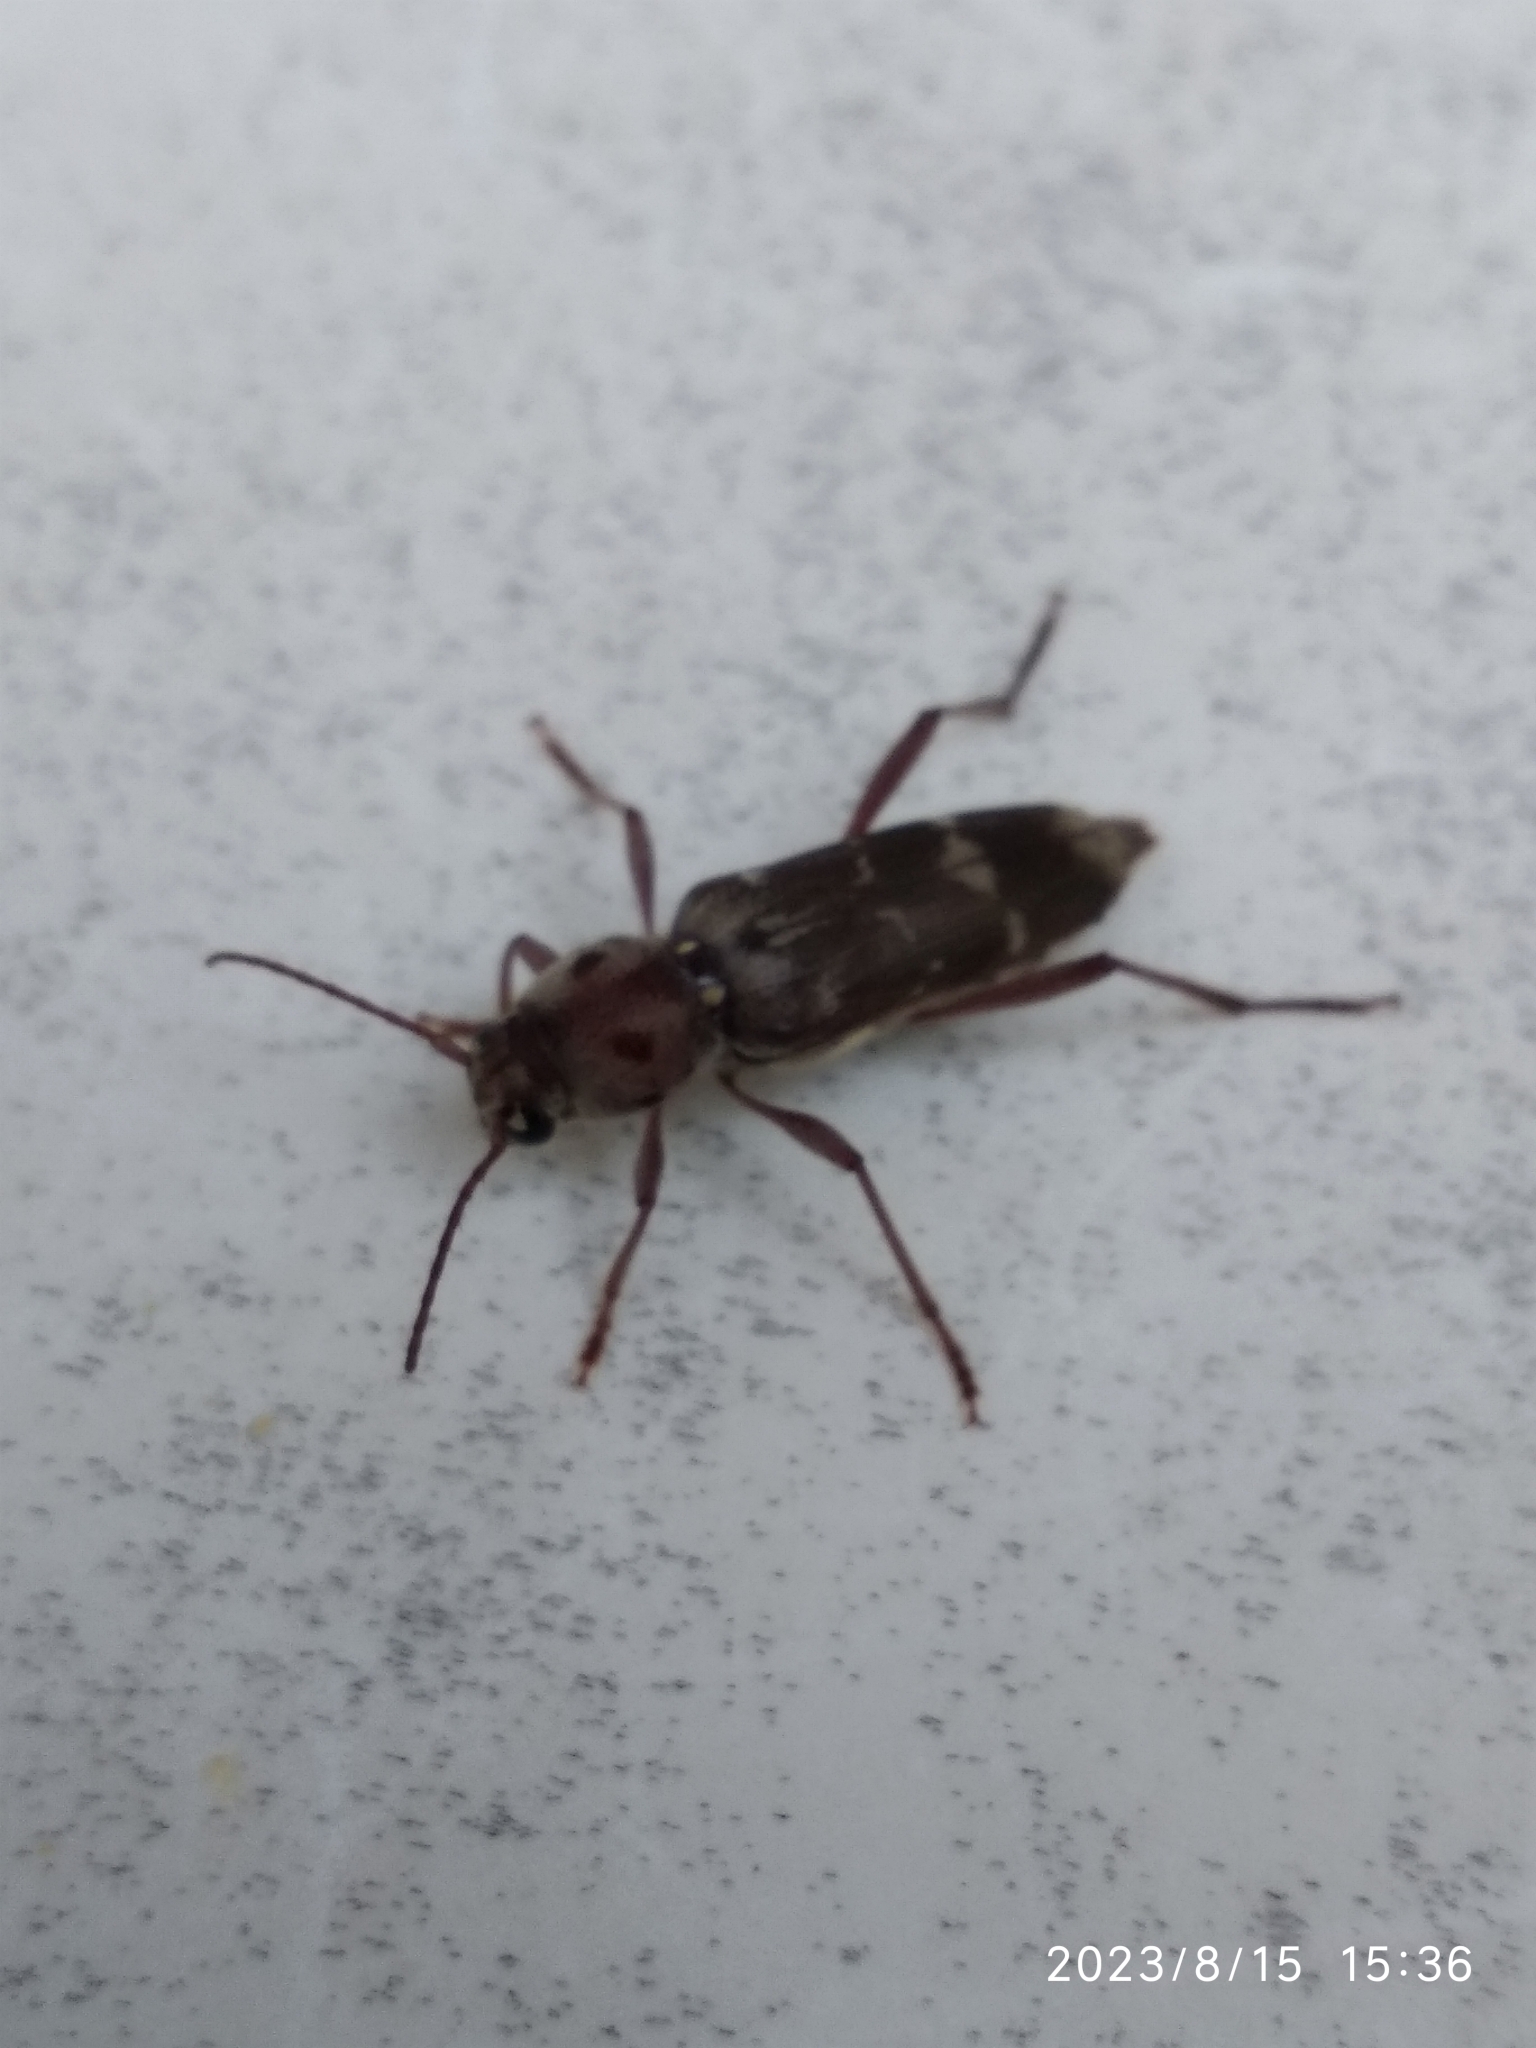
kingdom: Animalia
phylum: Arthropoda
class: Insecta
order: Coleoptera
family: Cerambycidae
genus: Xylotrechus
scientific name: Xylotrechus smei
